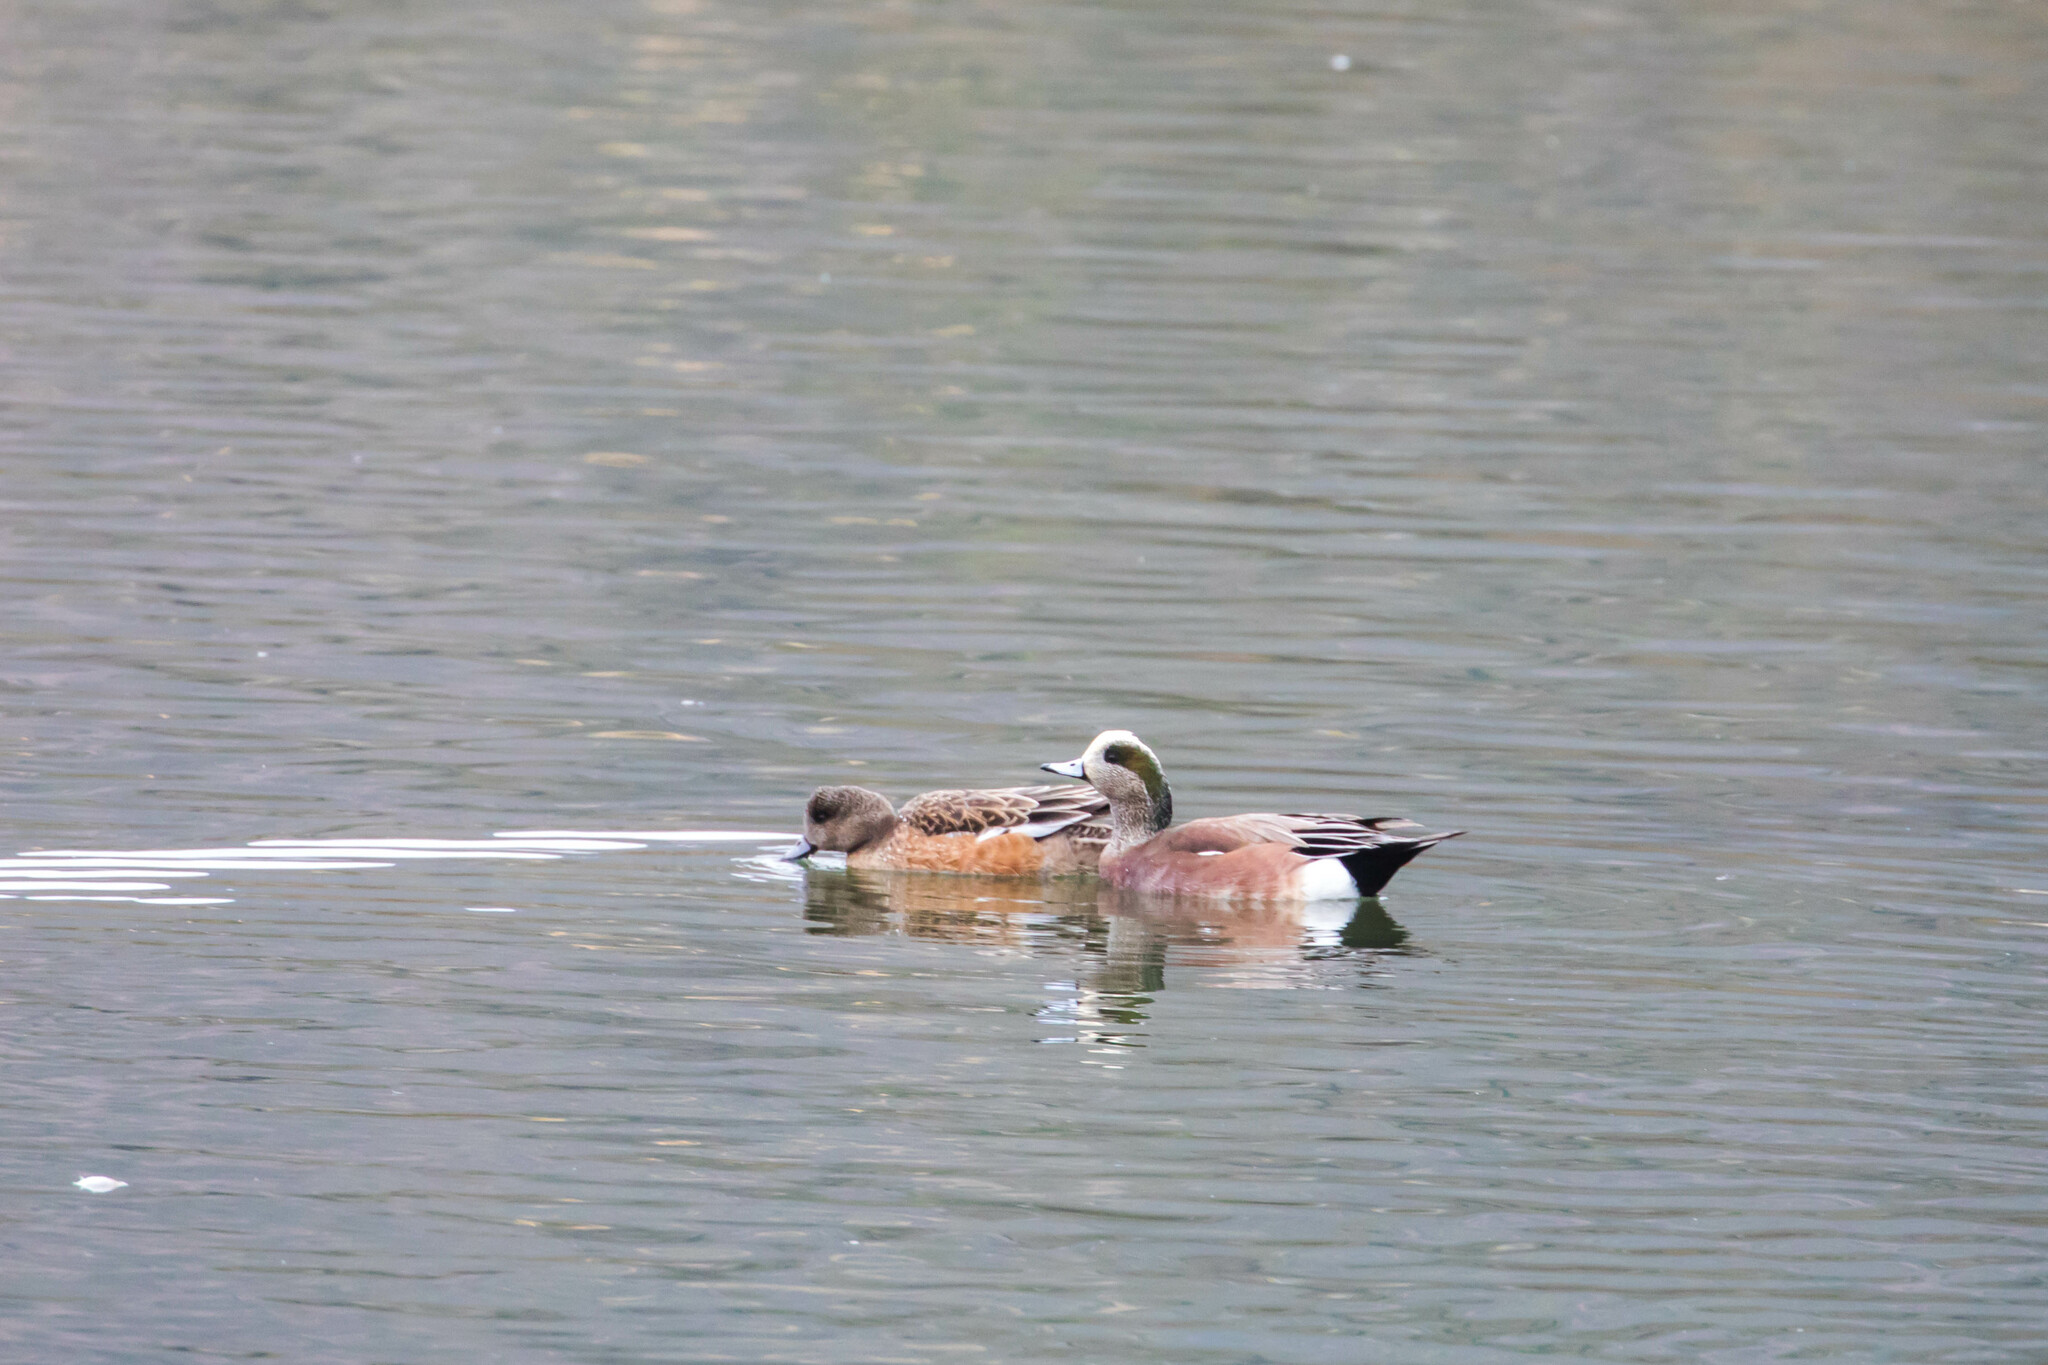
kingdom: Animalia
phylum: Chordata
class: Aves
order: Anseriformes
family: Anatidae
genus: Mareca
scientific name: Mareca americana
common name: American wigeon
